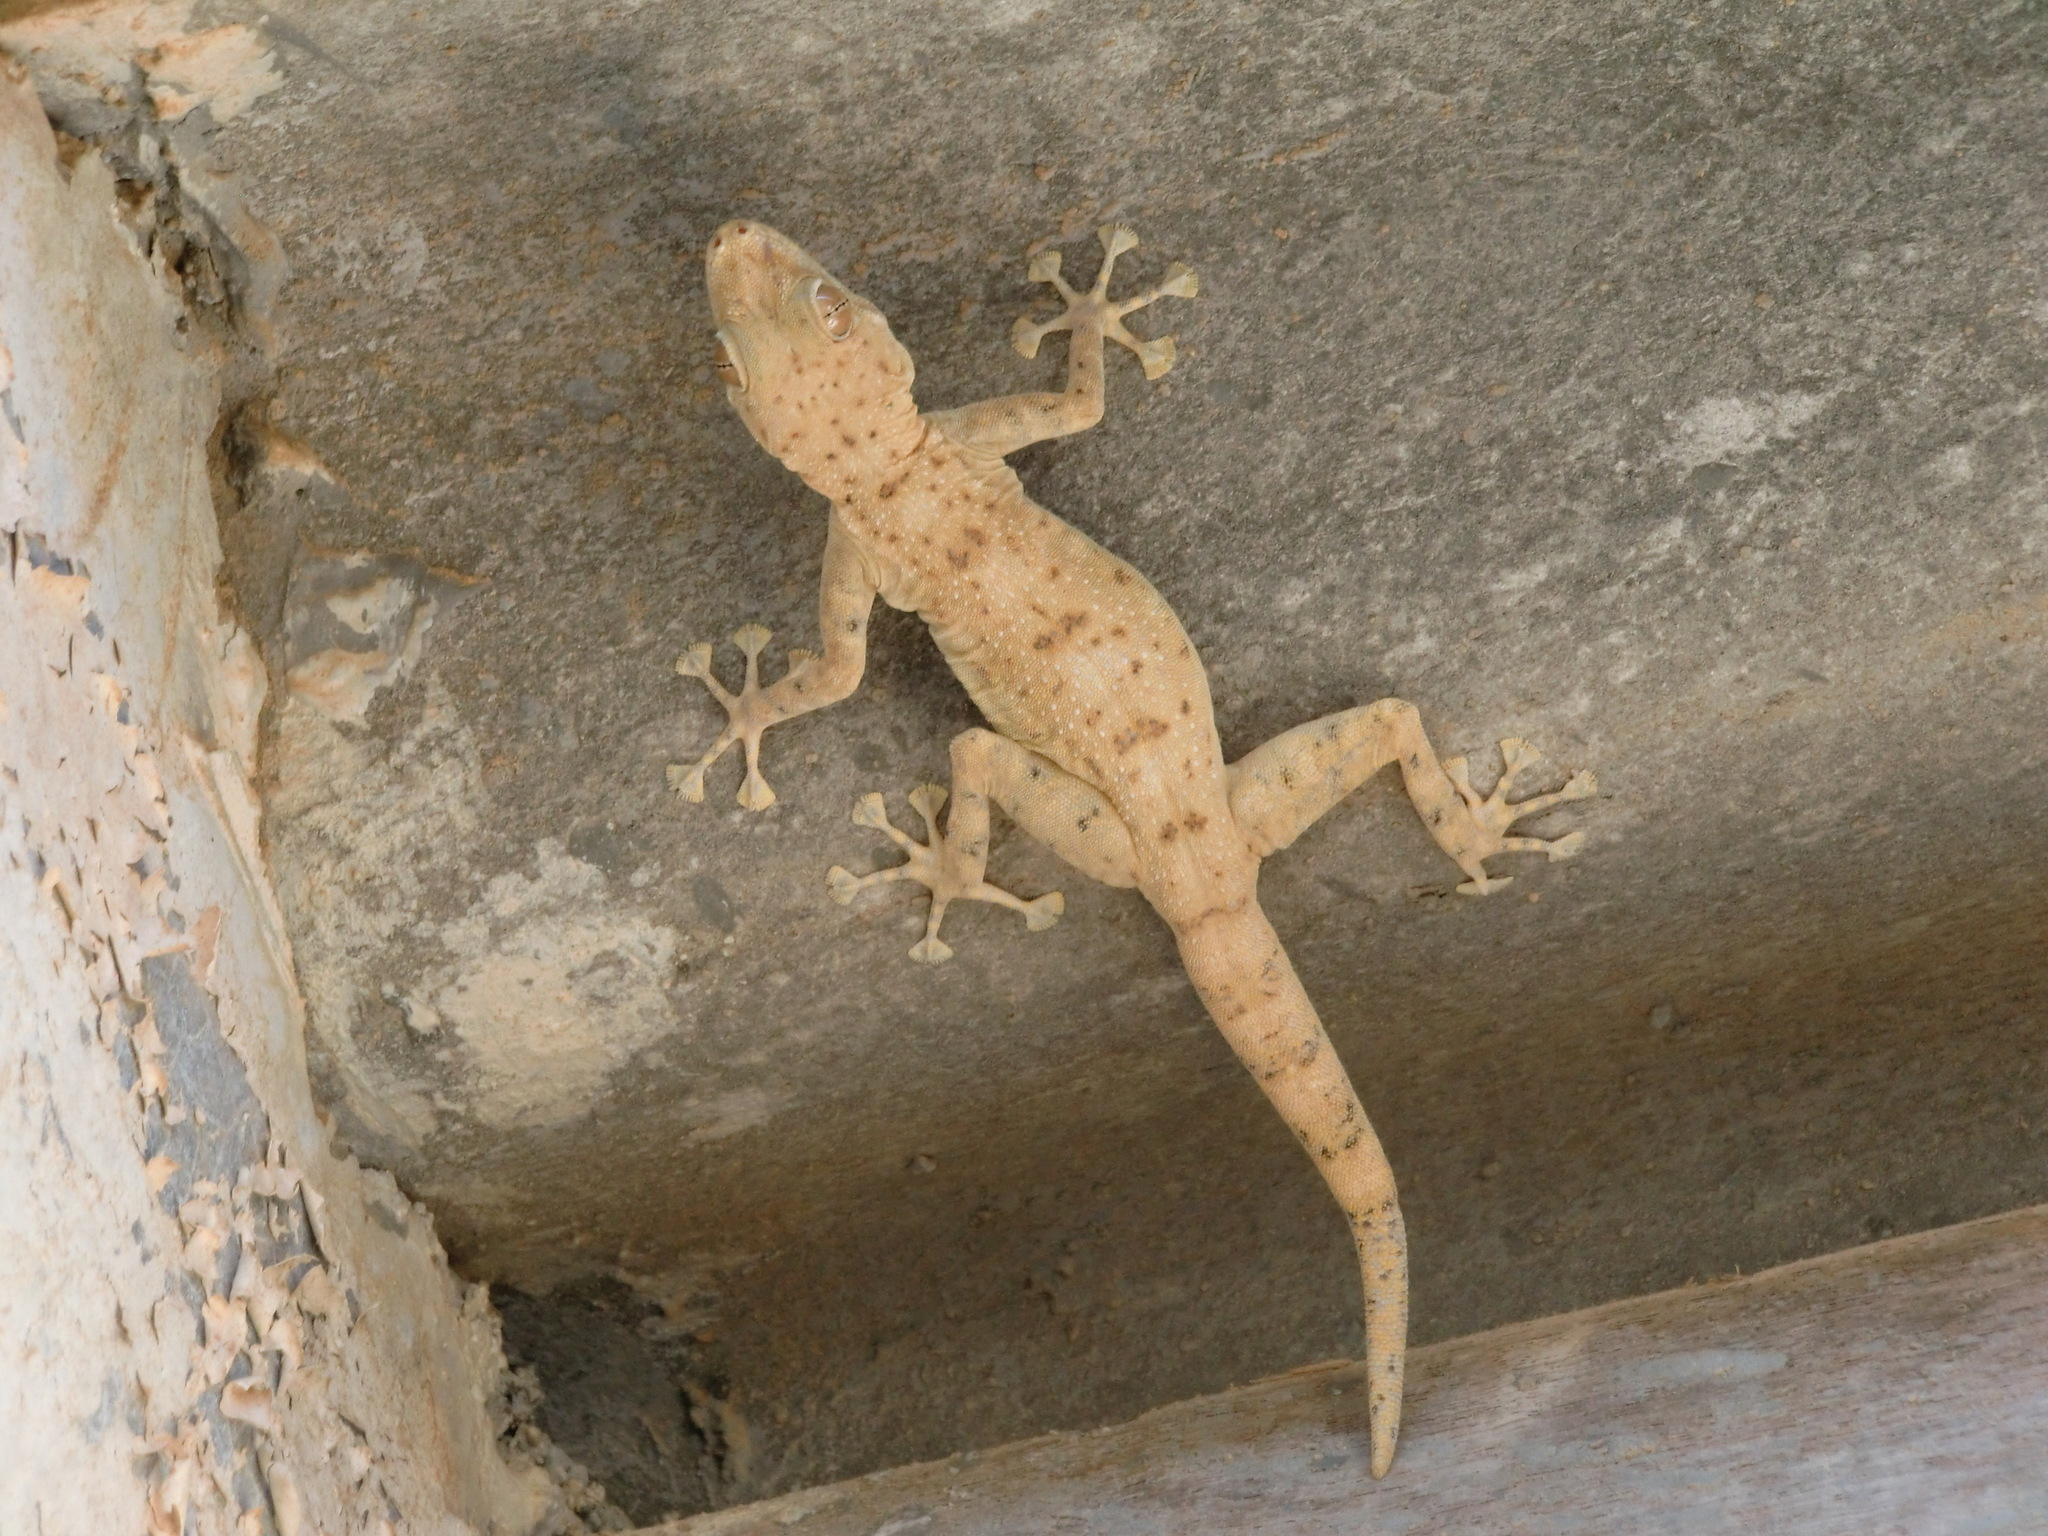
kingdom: Animalia
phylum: Chordata
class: Squamata
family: Phyllodactylidae
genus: Ptyodactylus
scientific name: Ptyodactylus dhofarensis
